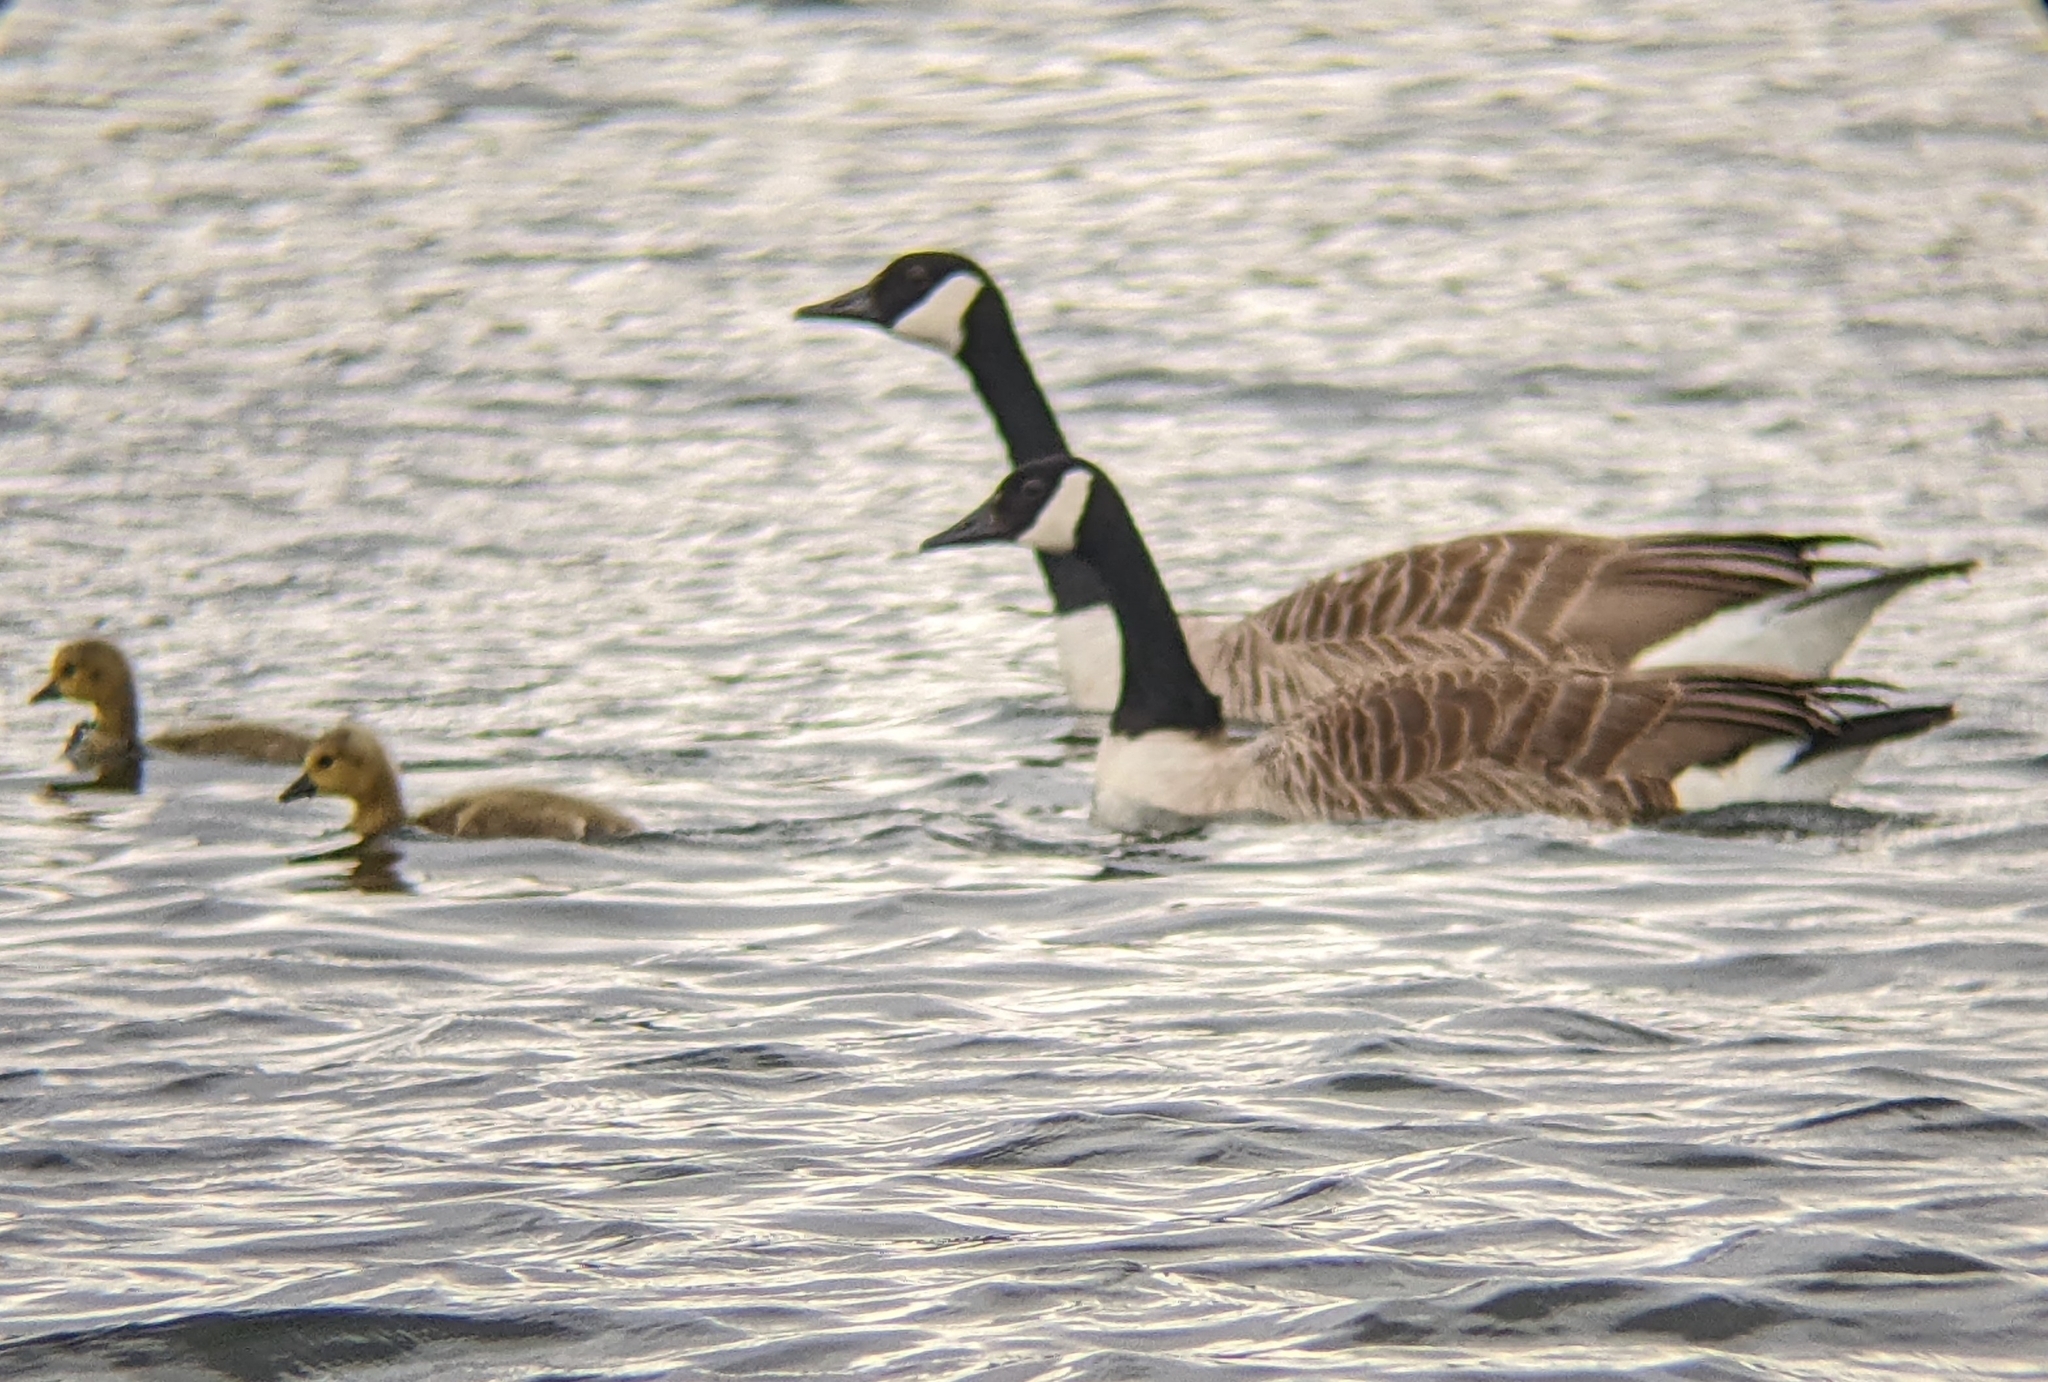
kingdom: Animalia
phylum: Chordata
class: Aves
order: Anseriformes
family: Anatidae
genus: Branta
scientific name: Branta canadensis
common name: Canada goose
